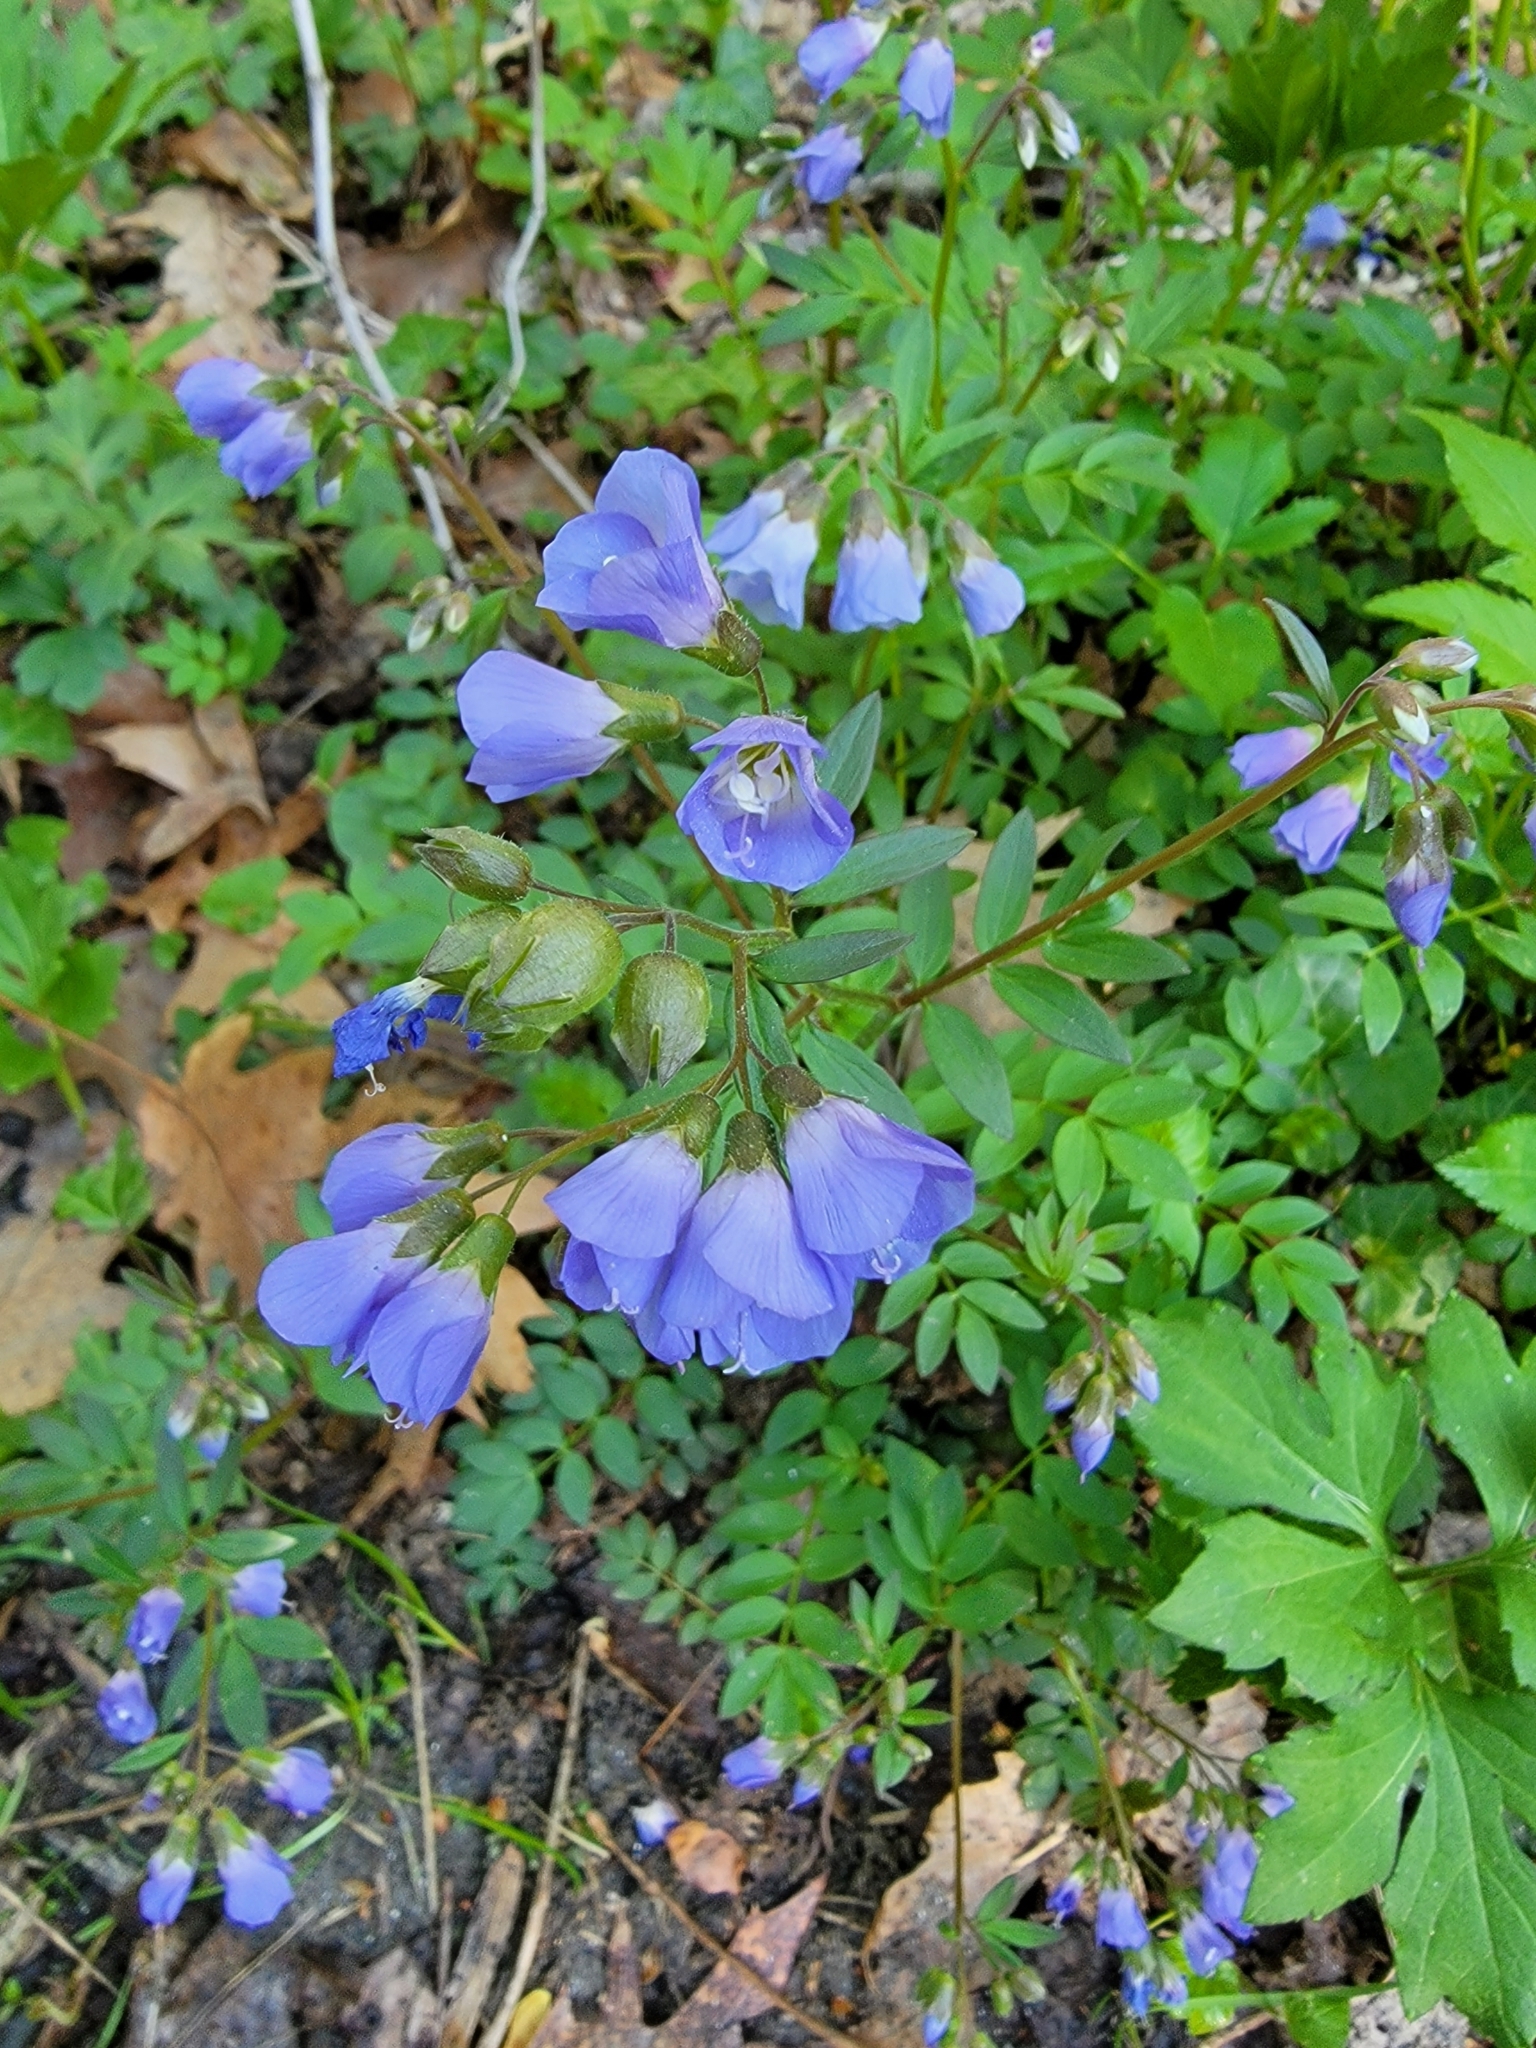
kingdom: Plantae
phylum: Tracheophyta
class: Magnoliopsida
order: Ericales
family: Polemoniaceae
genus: Polemonium
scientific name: Polemonium reptans
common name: Creeping jacob's-ladder
